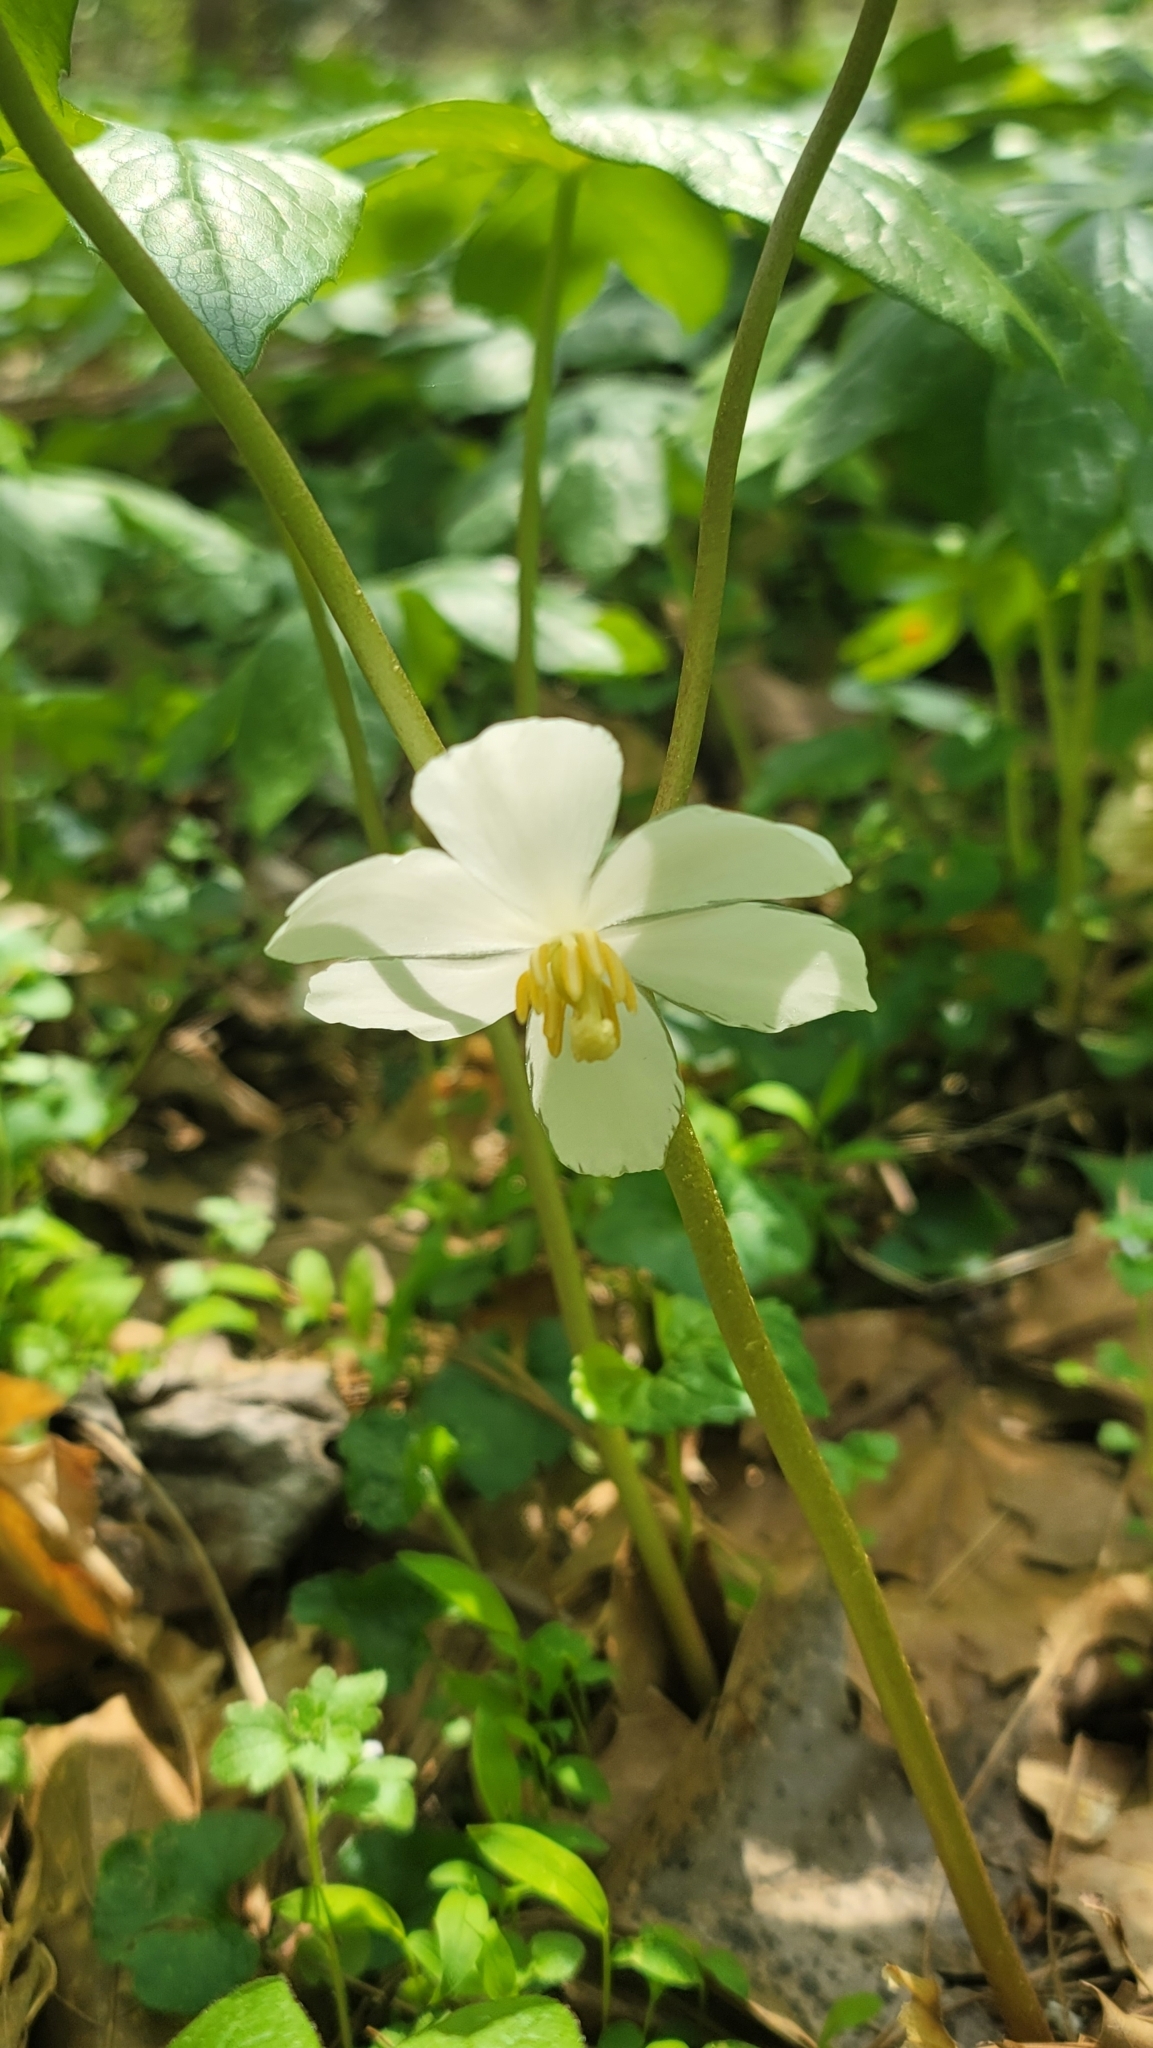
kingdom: Plantae
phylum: Tracheophyta
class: Magnoliopsida
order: Ranunculales
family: Berberidaceae
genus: Podophyllum
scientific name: Podophyllum peltatum
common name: Wild mandrake
